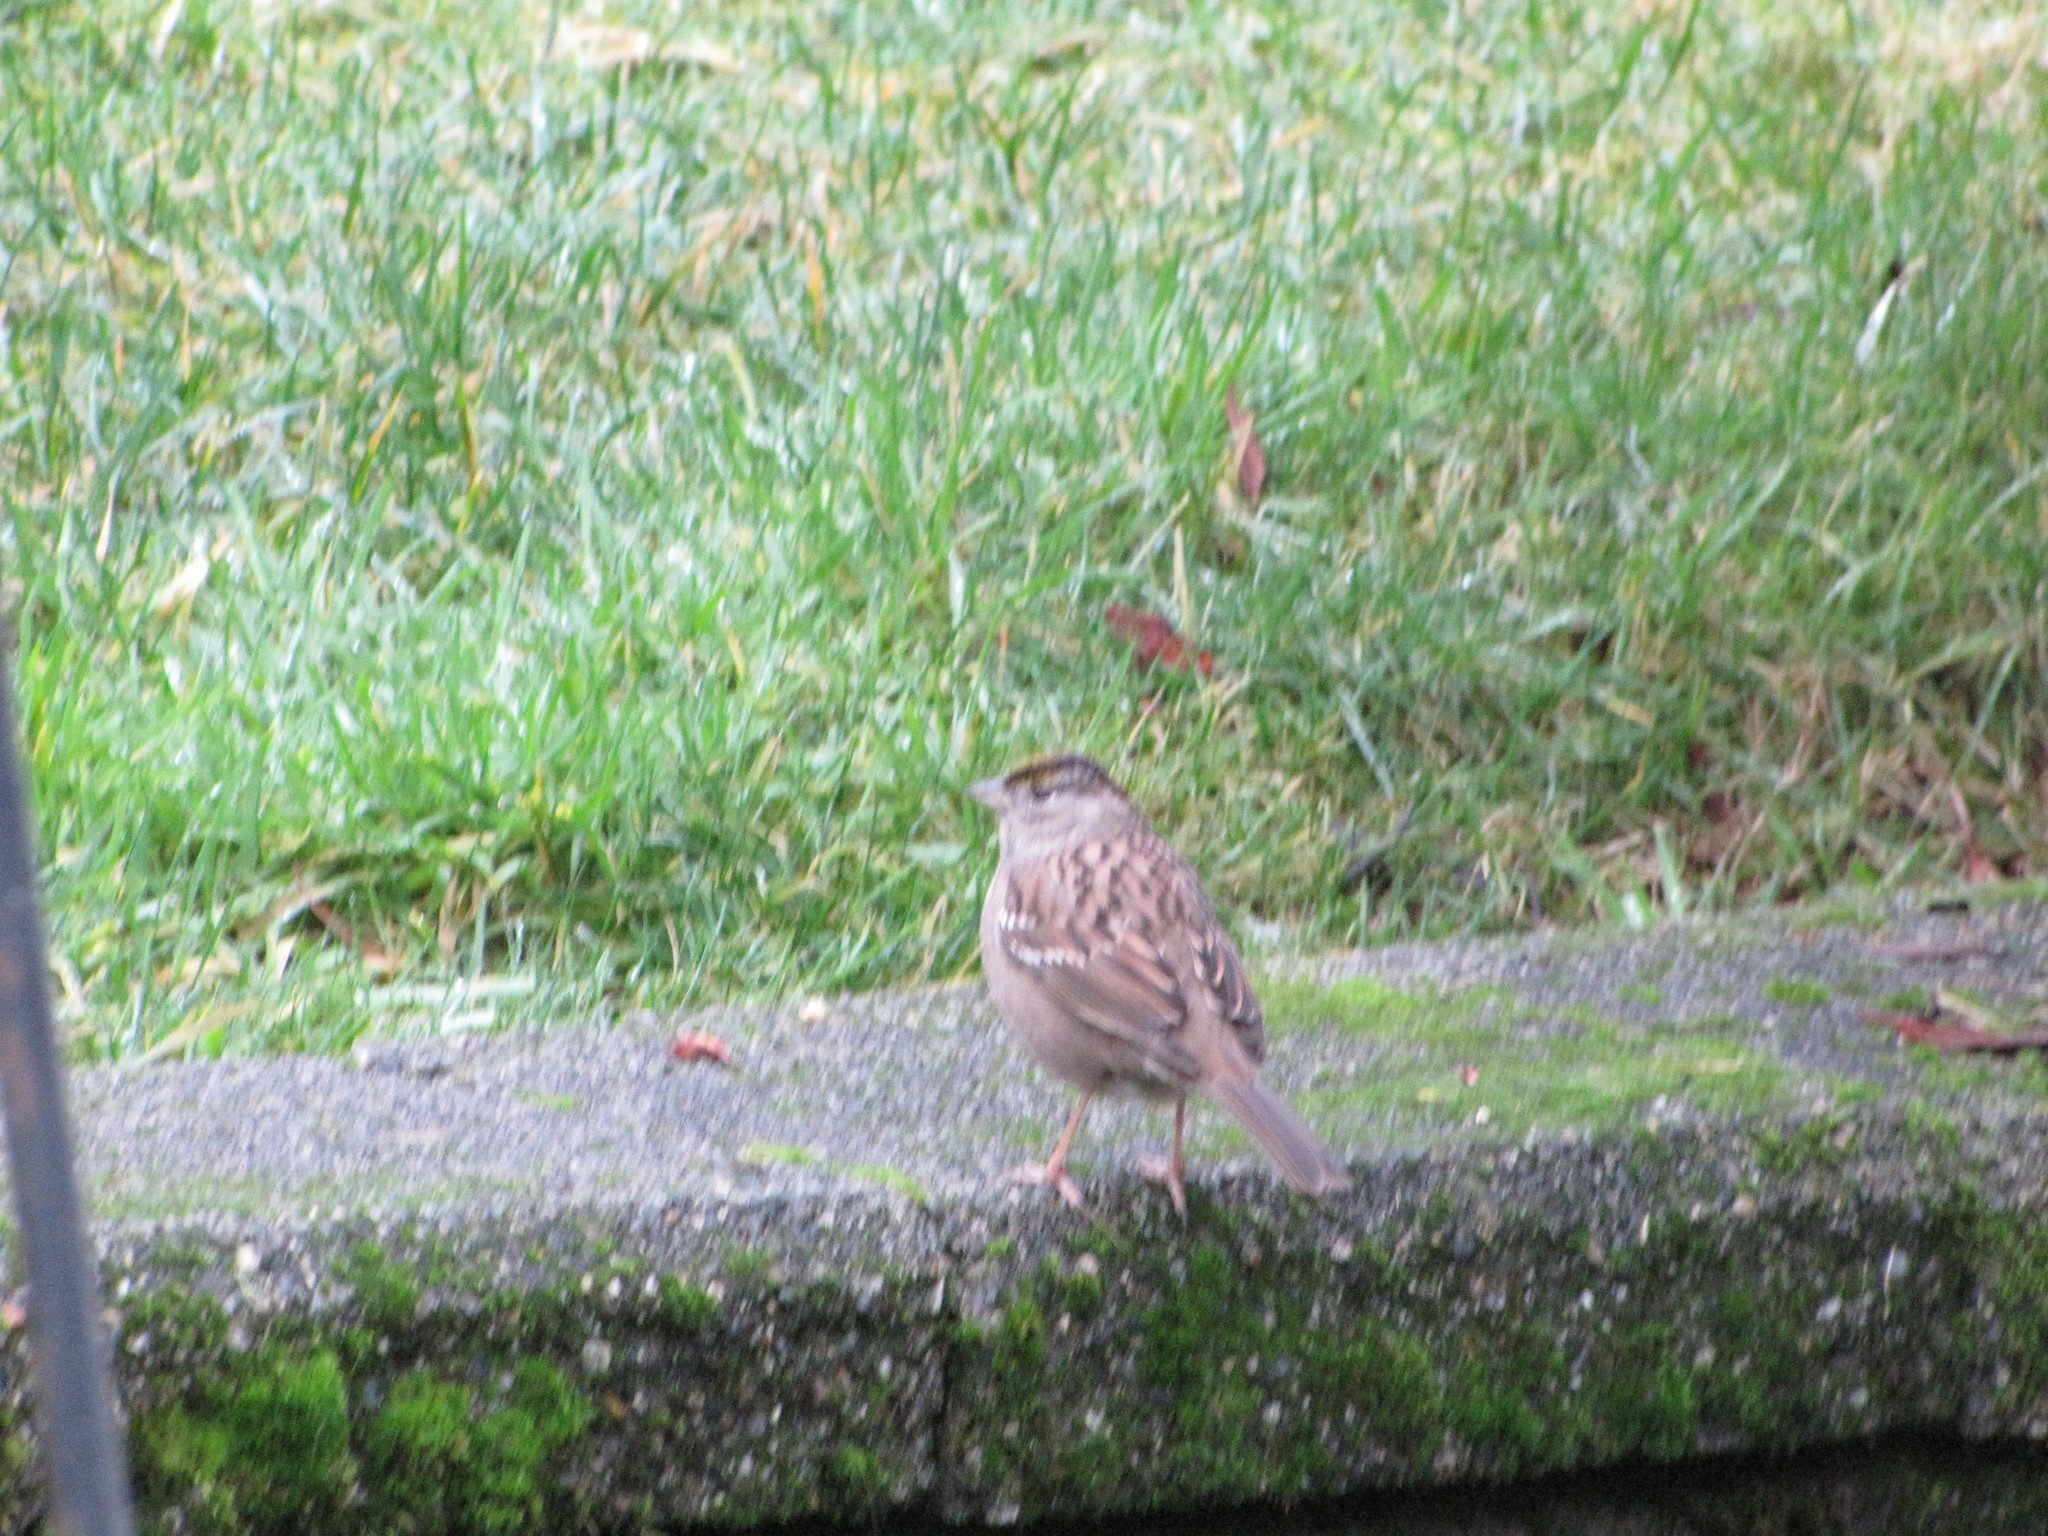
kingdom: Animalia
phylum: Chordata
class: Aves
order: Passeriformes
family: Passerellidae
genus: Zonotrichia
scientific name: Zonotrichia atricapilla
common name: Golden-crowned sparrow
